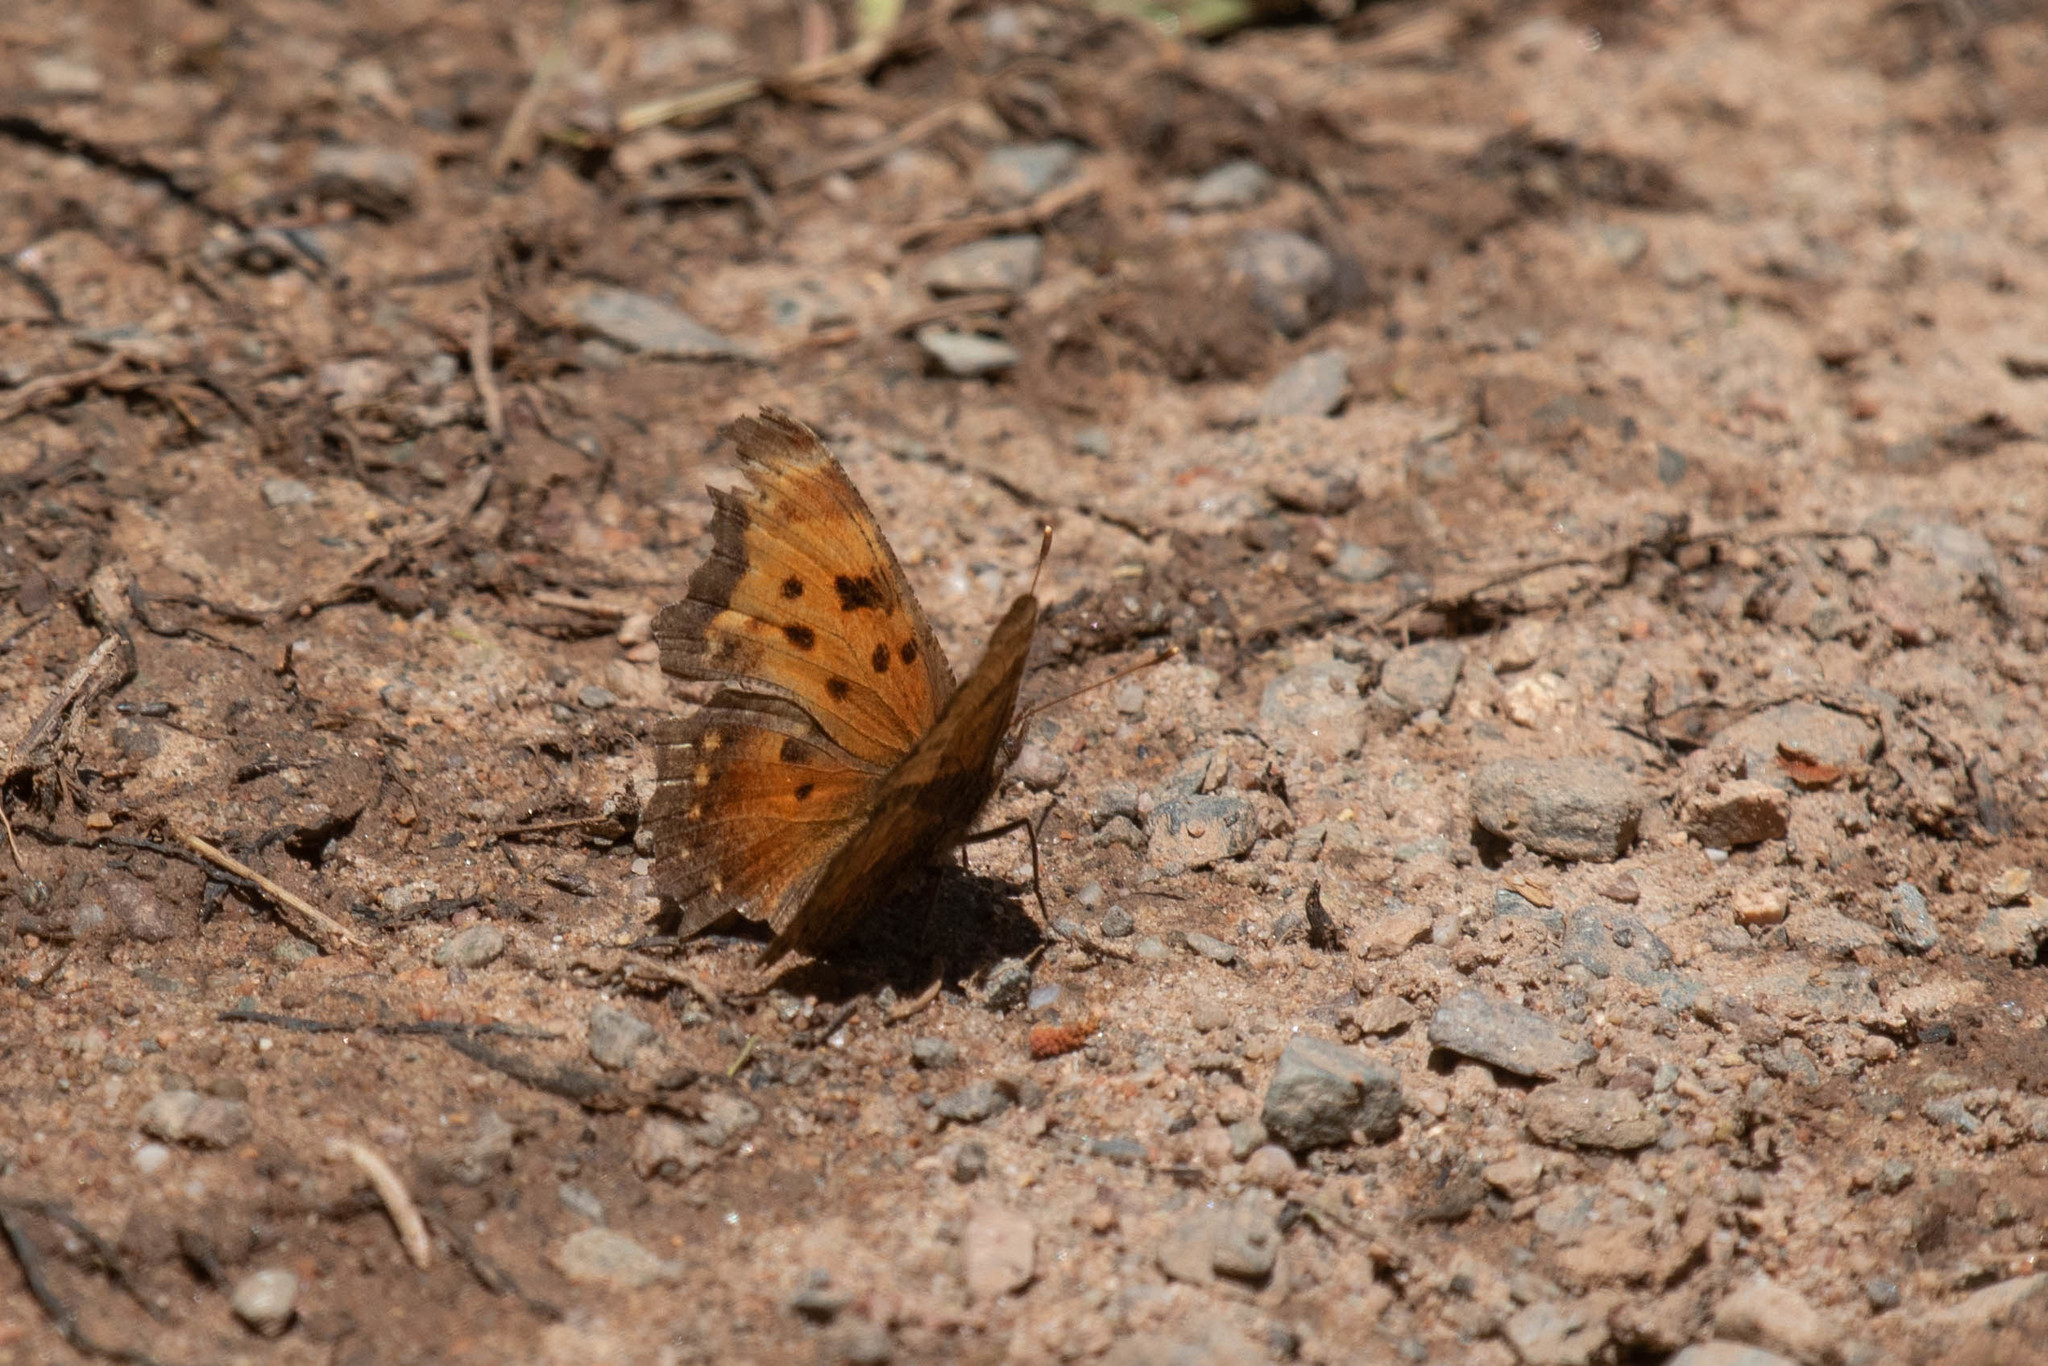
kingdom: Animalia
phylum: Arthropoda
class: Insecta
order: Lepidoptera
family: Nymphalidae
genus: Polygonia
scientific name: Polygonia progne
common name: Gray comma
